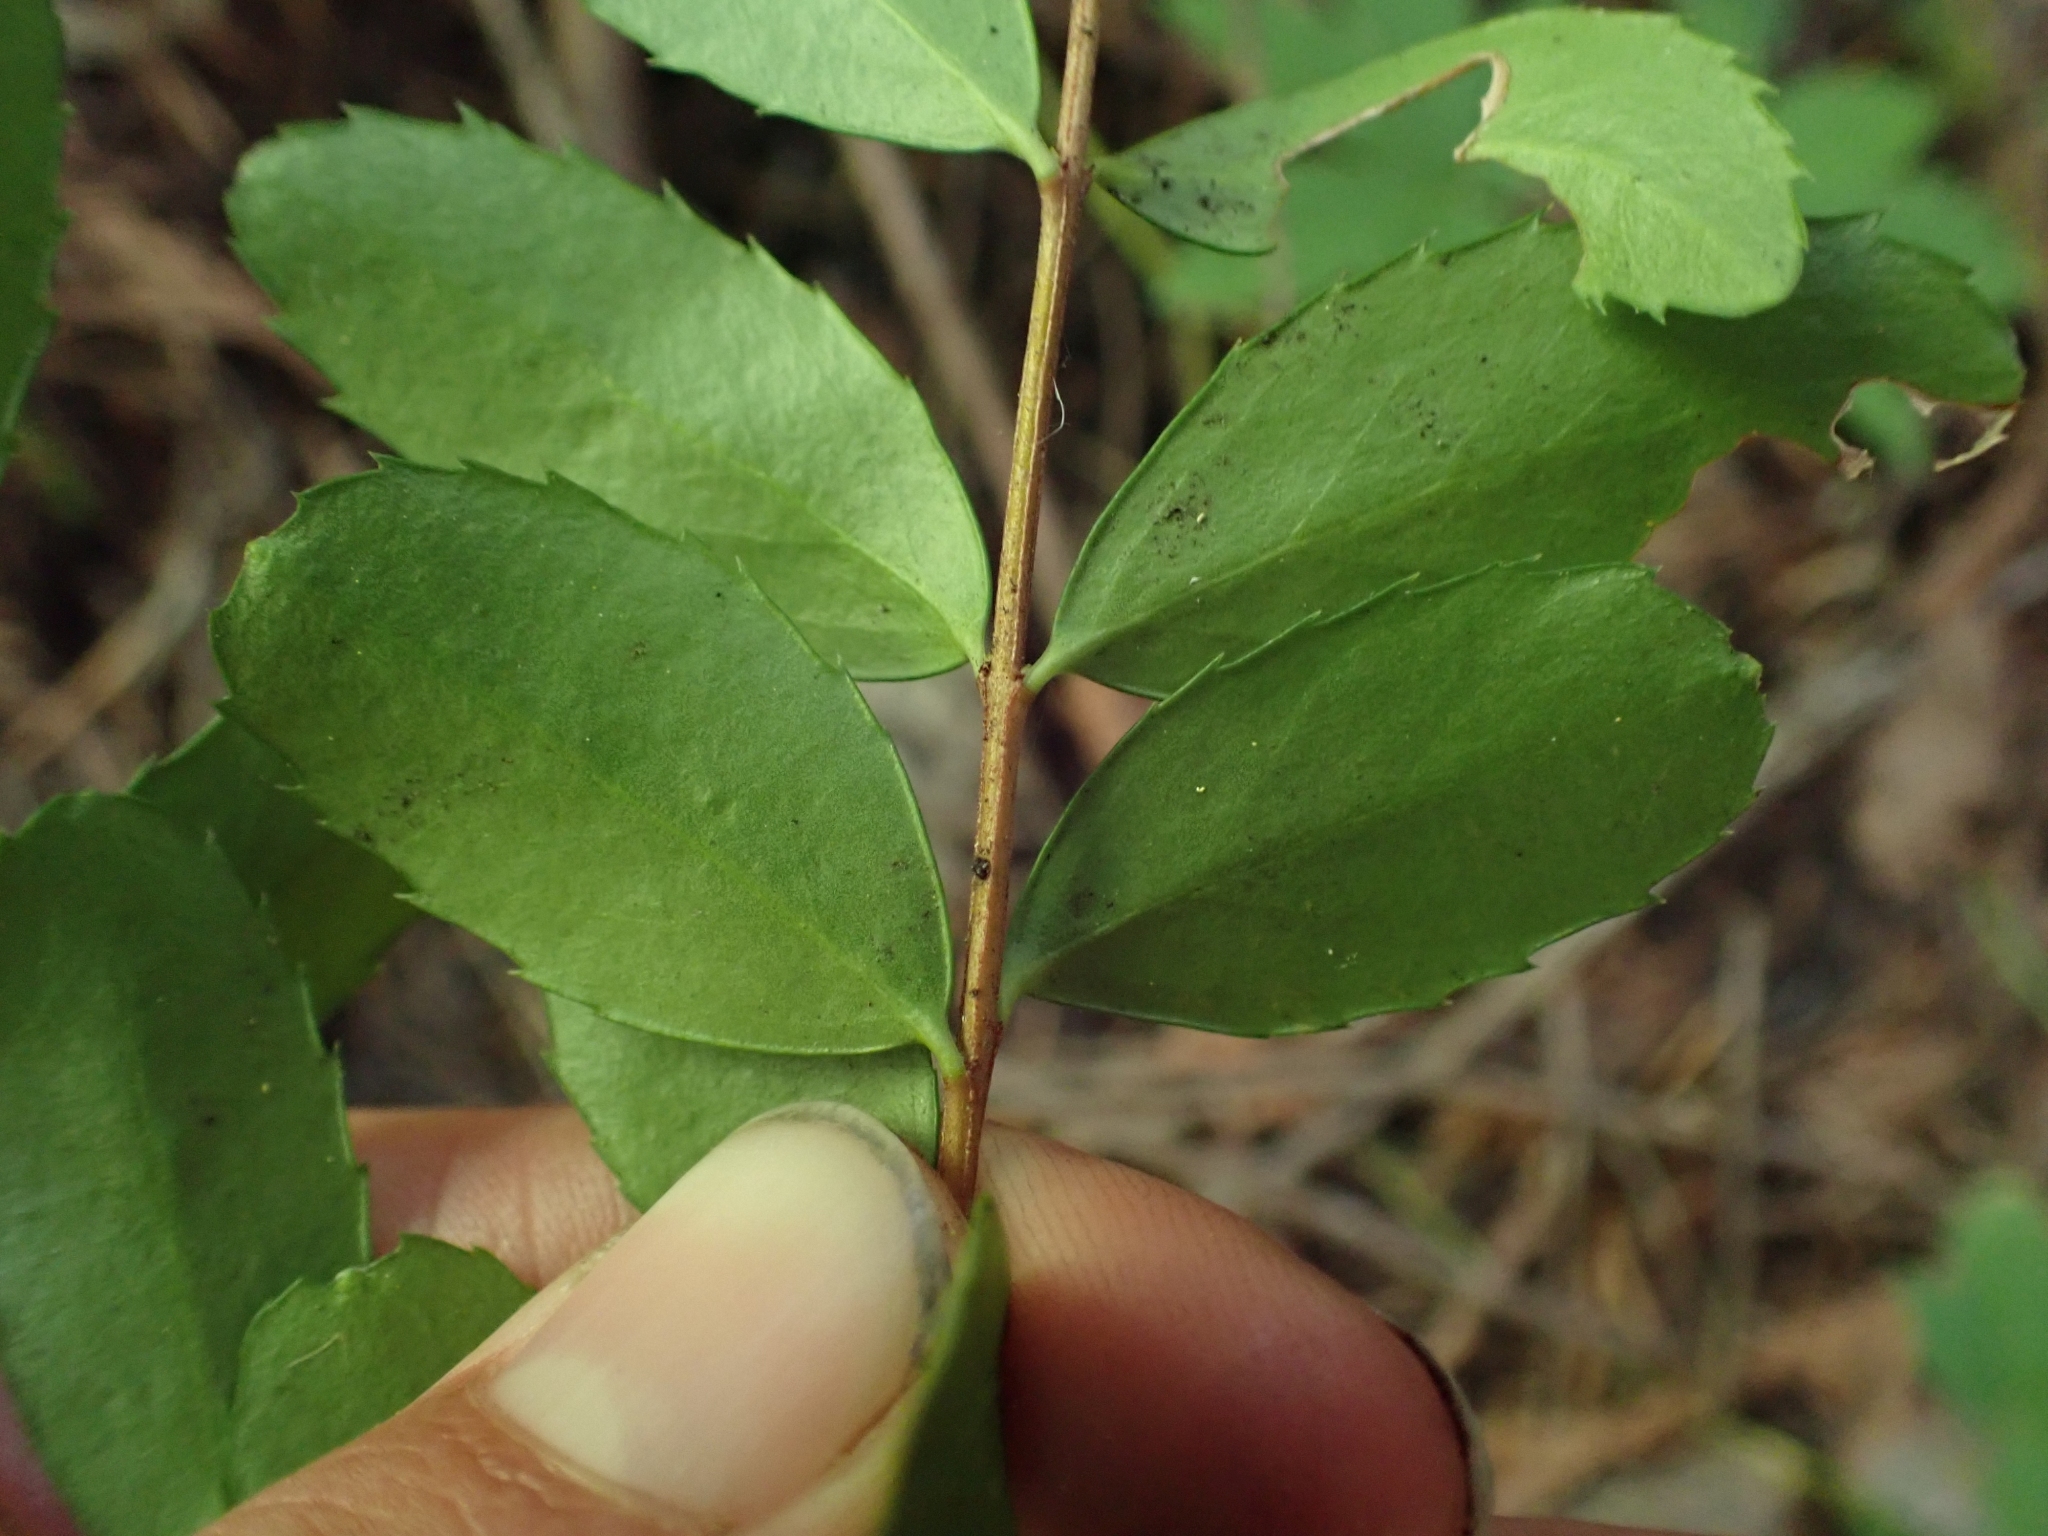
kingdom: Plantae
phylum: Tracheophyta
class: Magnoliopsida
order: Celastrales
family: Celastraceae
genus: Paxistima
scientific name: Paxistima myrsinites
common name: Mountain-lover
